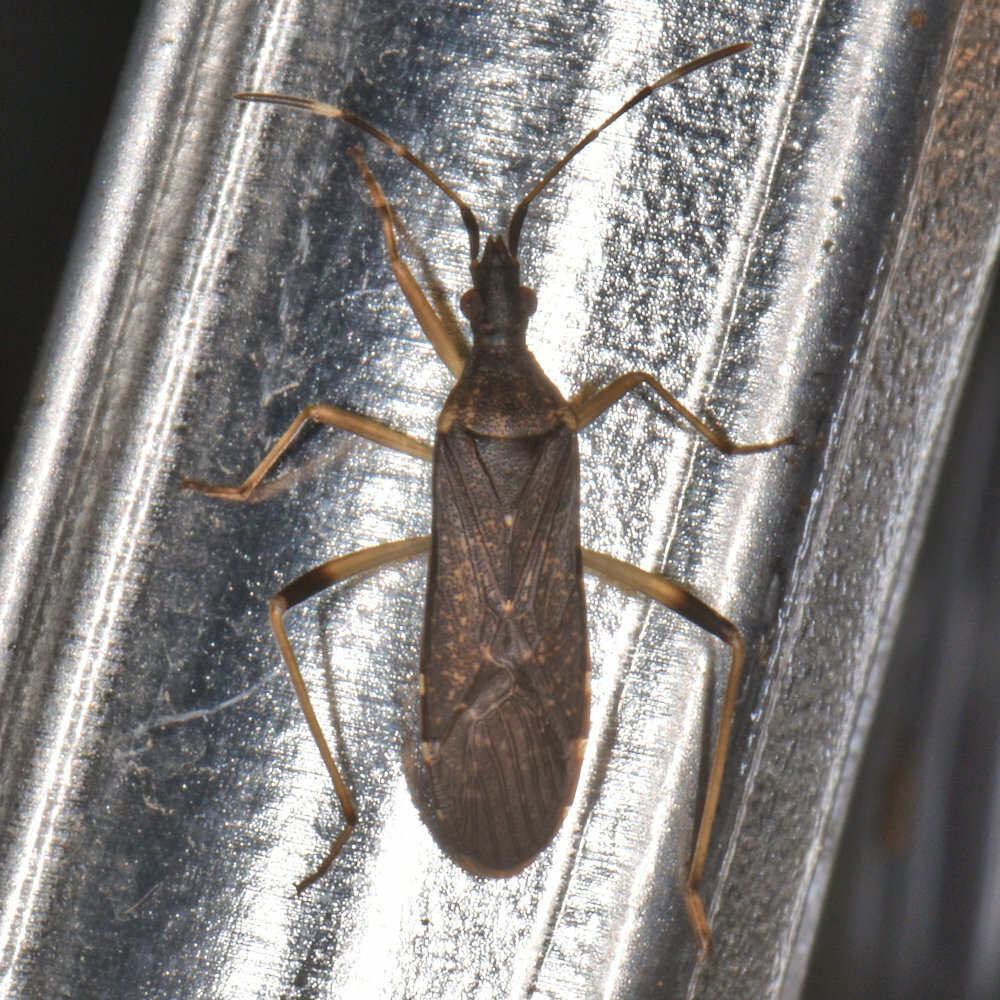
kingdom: Animalia
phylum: Arthropoda
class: Insecta
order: Hemiptera
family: Stenocephalidae
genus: Dicranocephalus
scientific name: Dicranocephalus schmitzi
